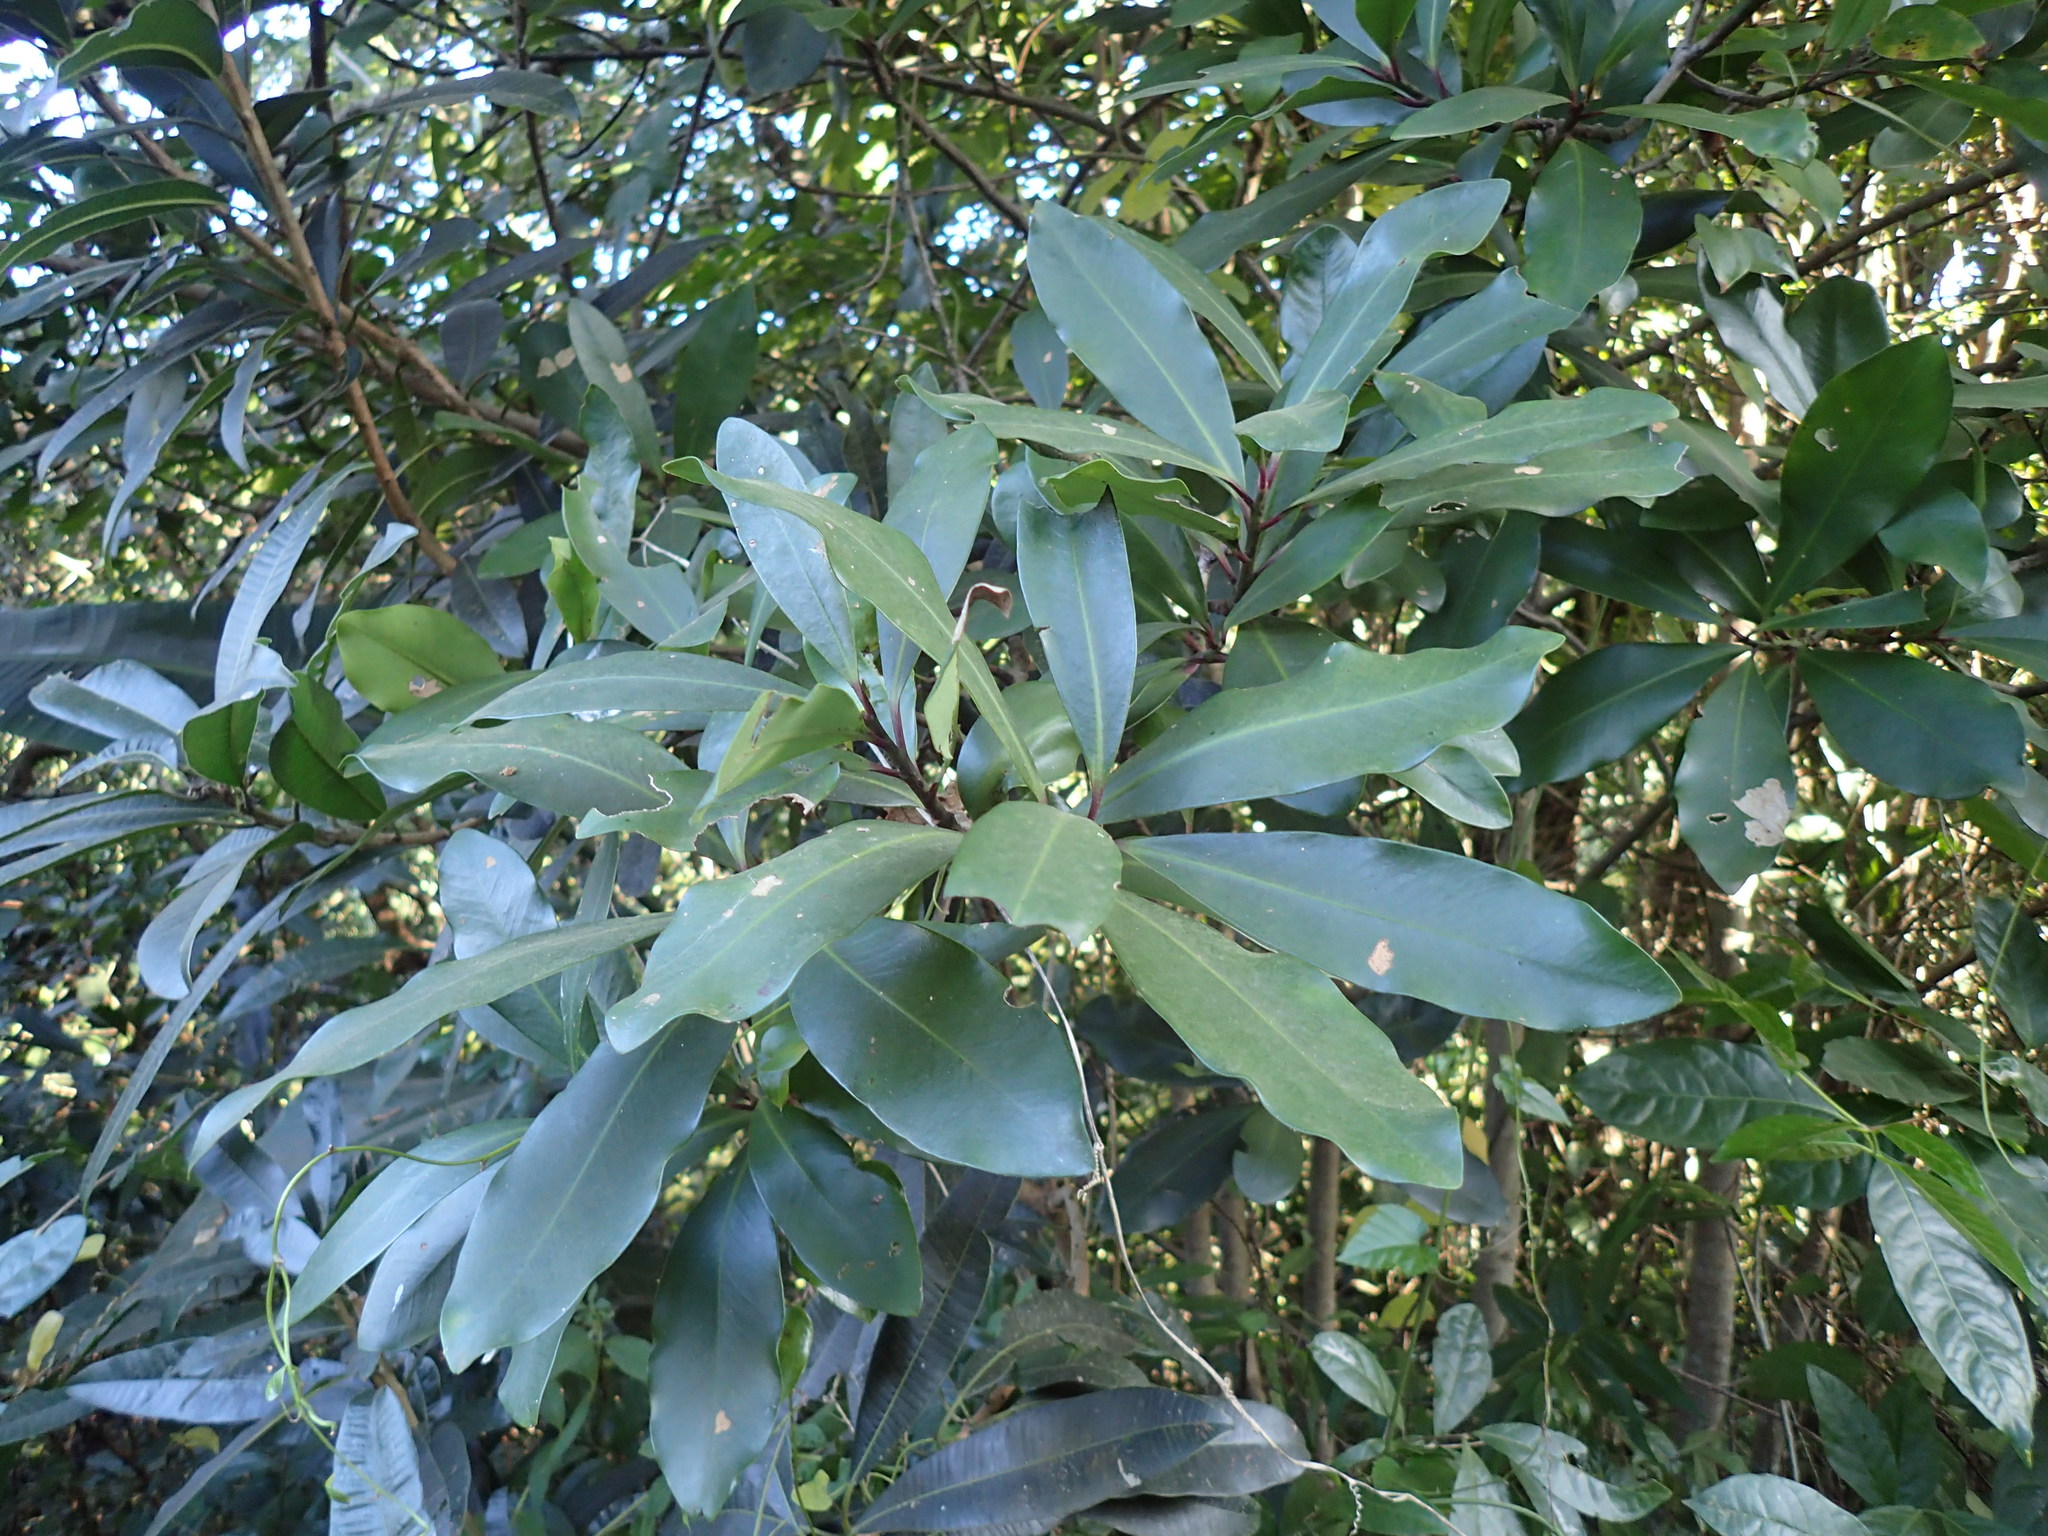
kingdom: Plantae
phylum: Tracheophyta
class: Magnoliopsida
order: Ericales
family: Primulaceae
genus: Myrsine
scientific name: Myrsine melanophloeos
